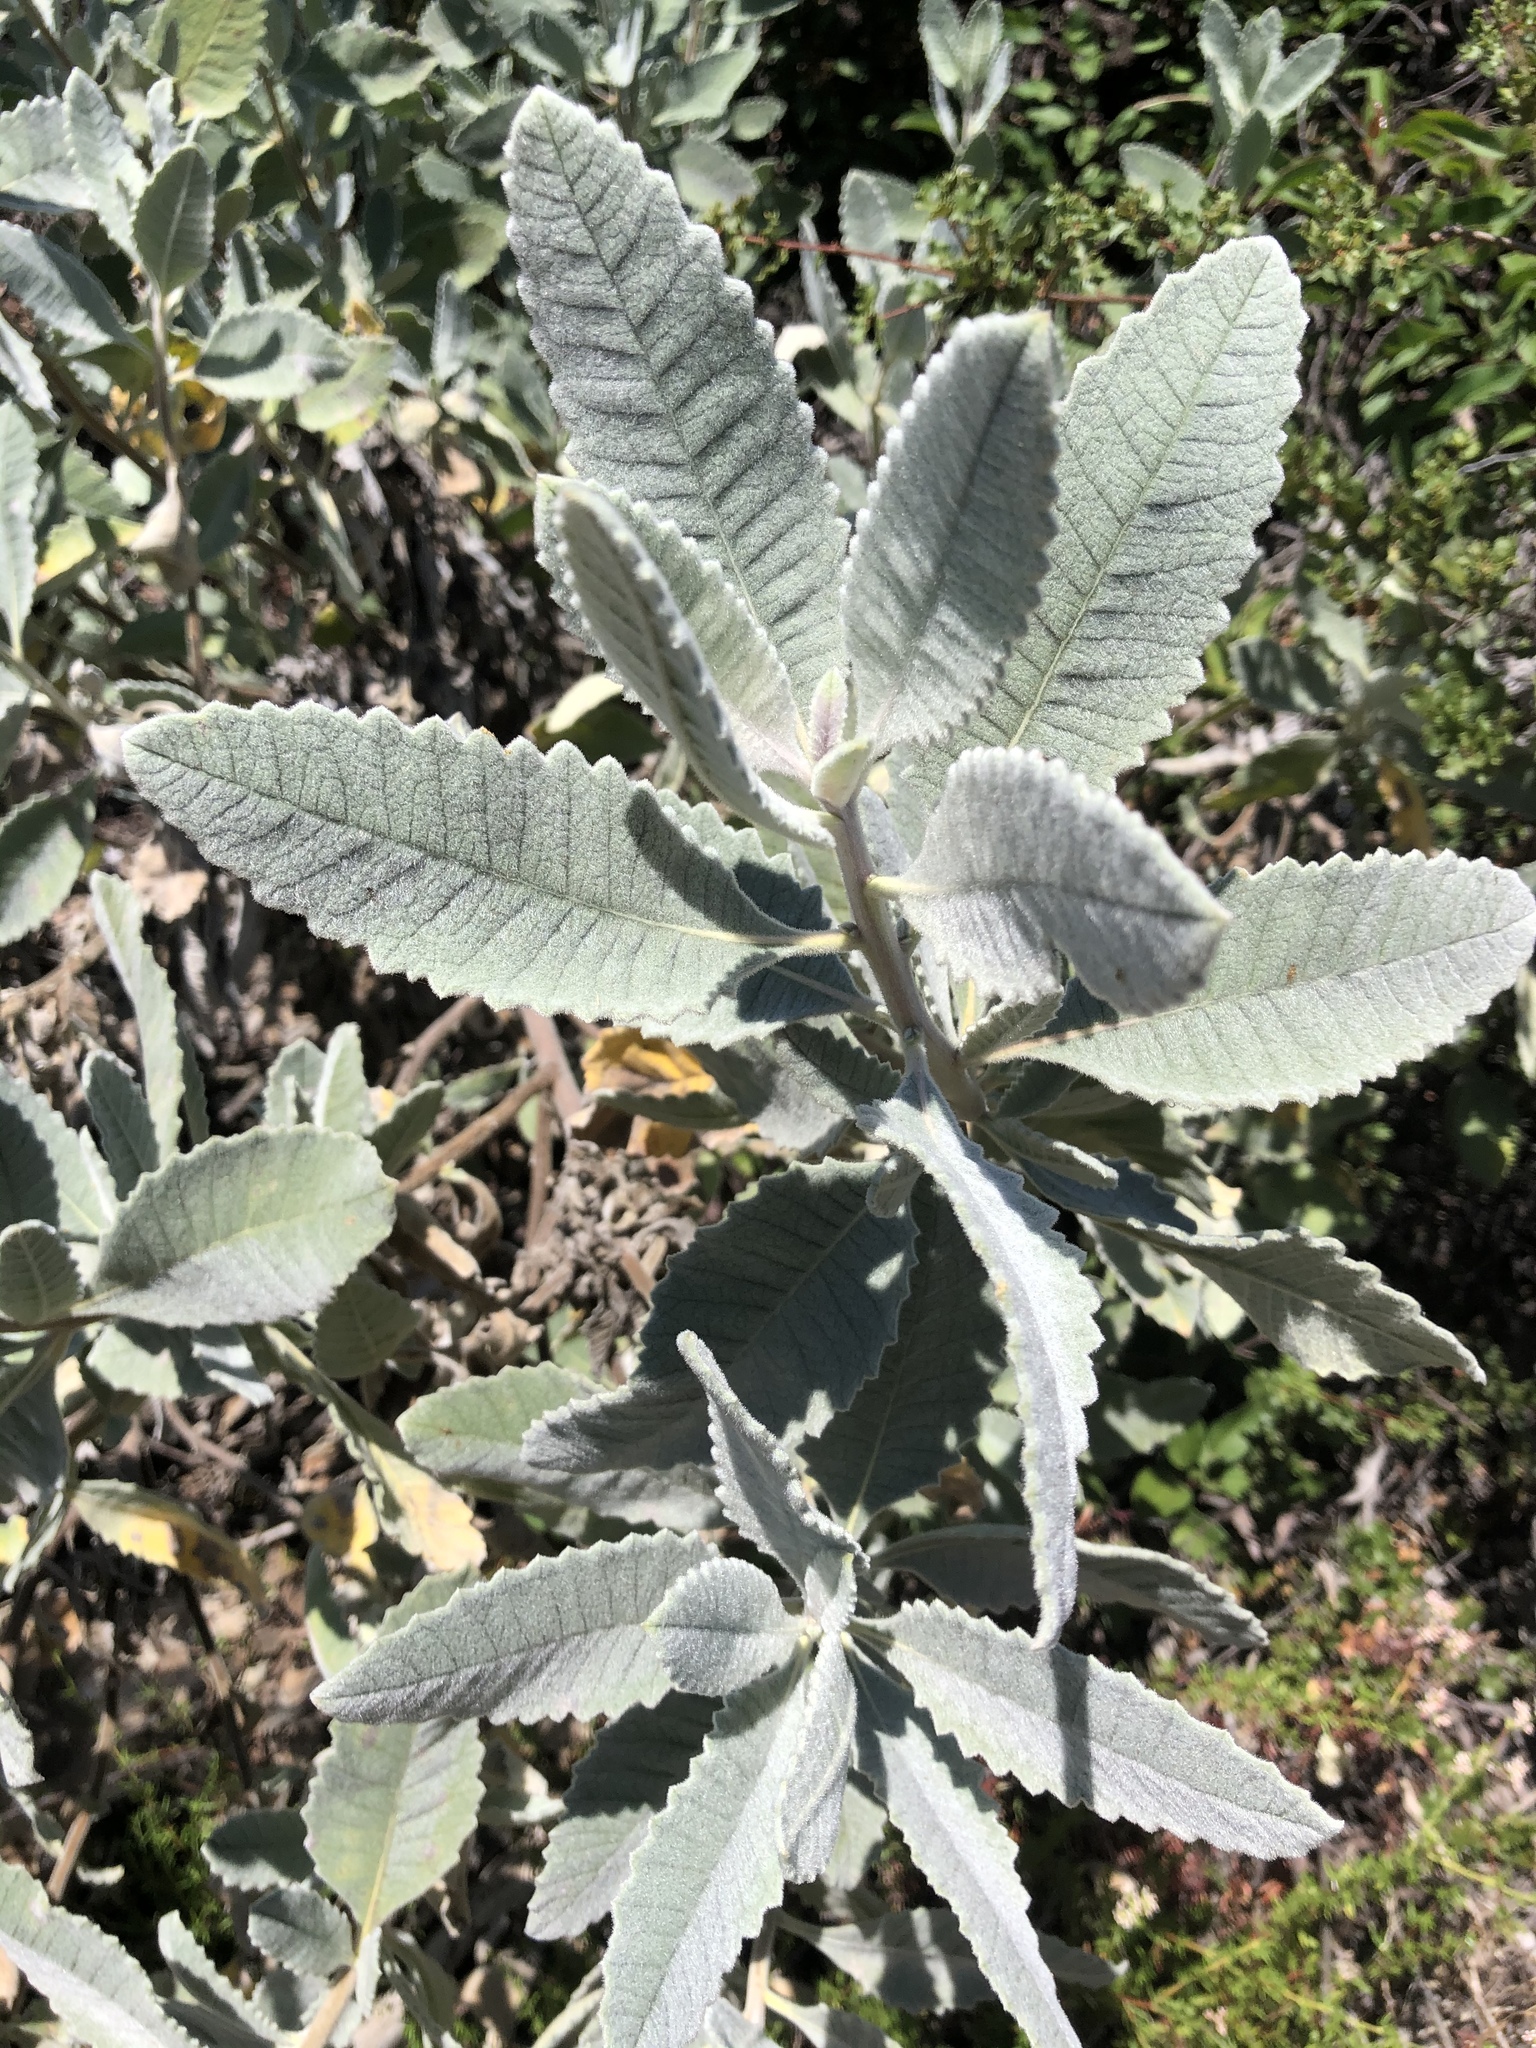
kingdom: Plantae
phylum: Tracheophyta
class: Magnoliopsida
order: Boraginales
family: Namaceae
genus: Eriodictyon
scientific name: Eriodictyon crassifolium
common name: Thick-leaf yerba-santa
